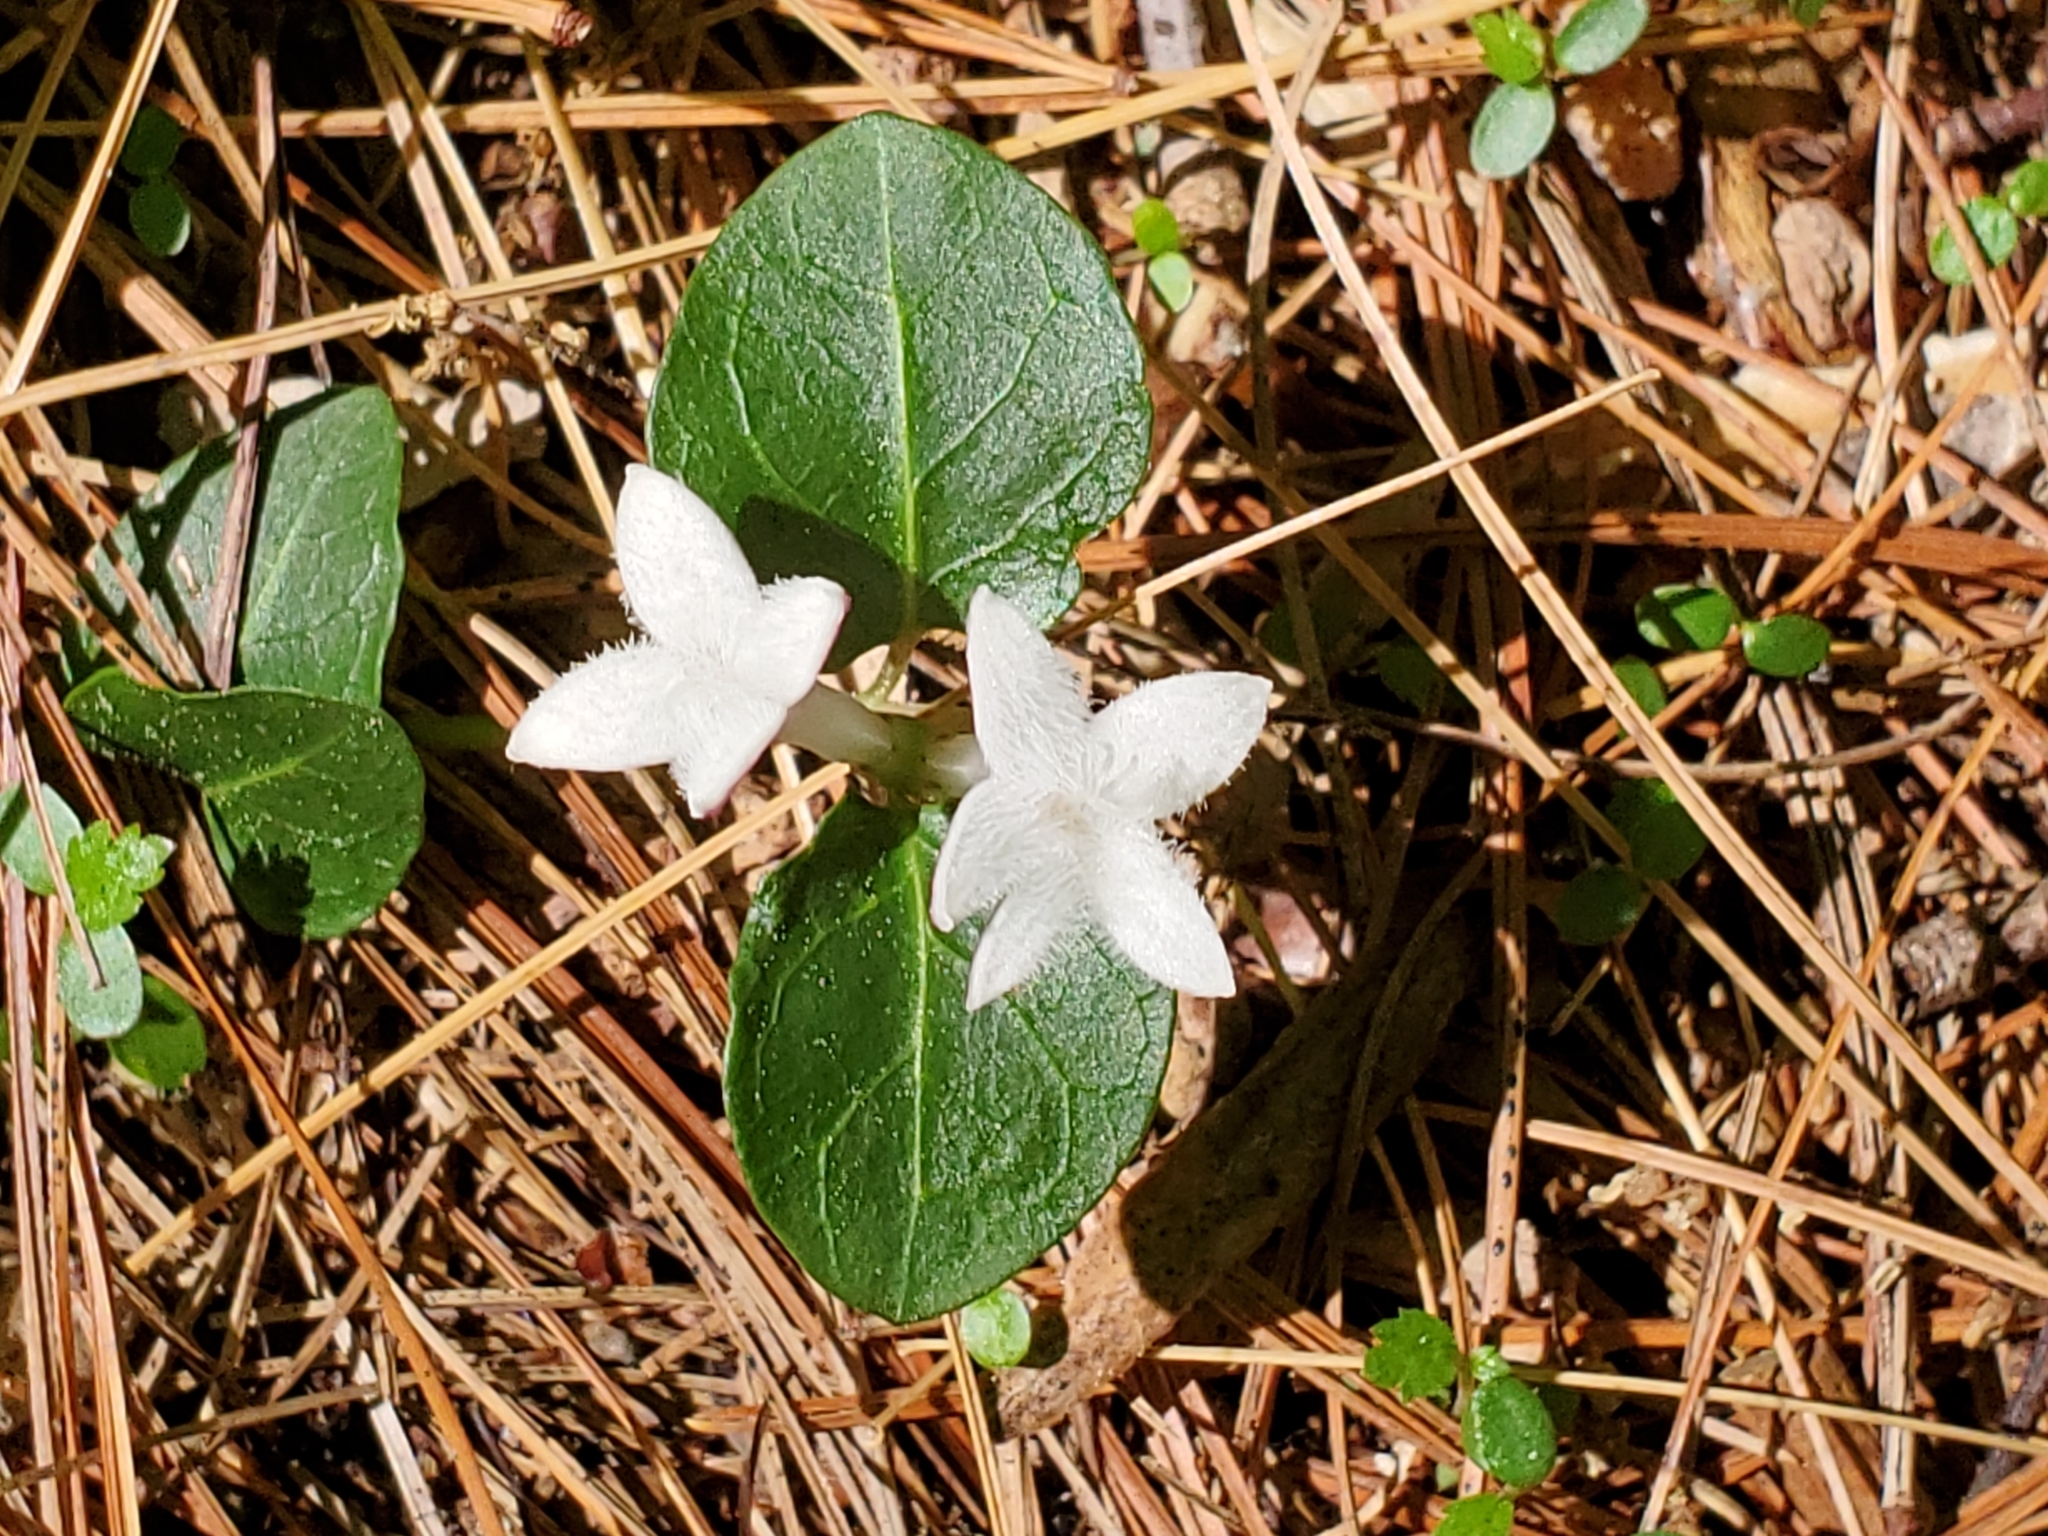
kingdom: Plantae
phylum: Tracheophyta
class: Magnoliopsida
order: Gentianales
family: Rubiaceae
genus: Mitchella
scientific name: Mitchella repens
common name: Partridge-berry
